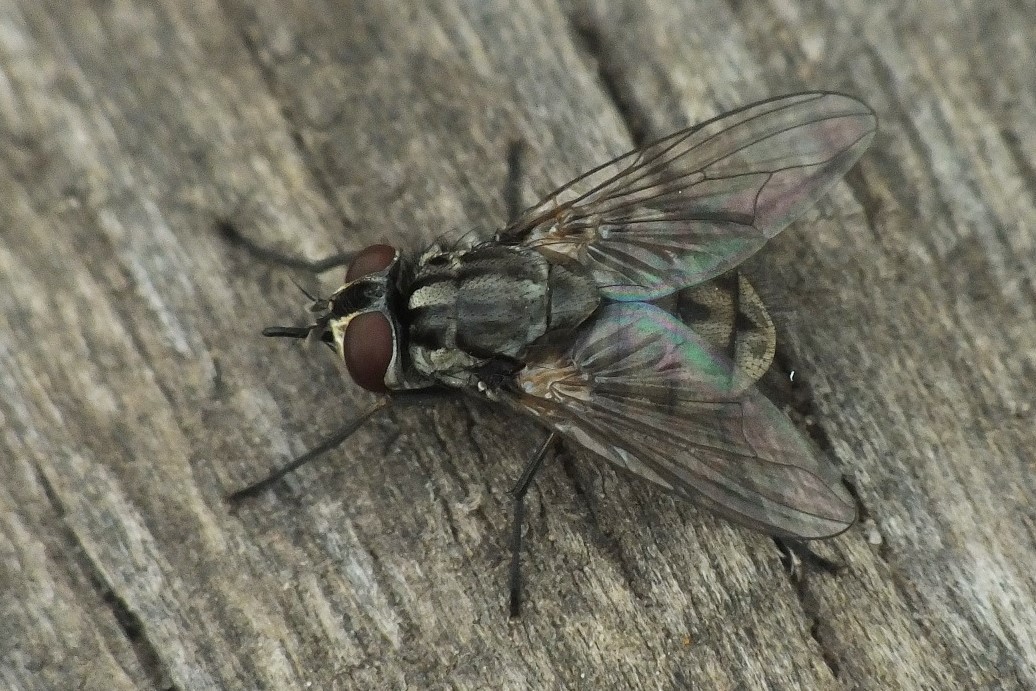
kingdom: Animalia
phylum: Arthropoda
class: Insecta
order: Diptera
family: Muscidae
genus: Stomoxys
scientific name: Stomoxys calcitrans
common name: Stable fly
